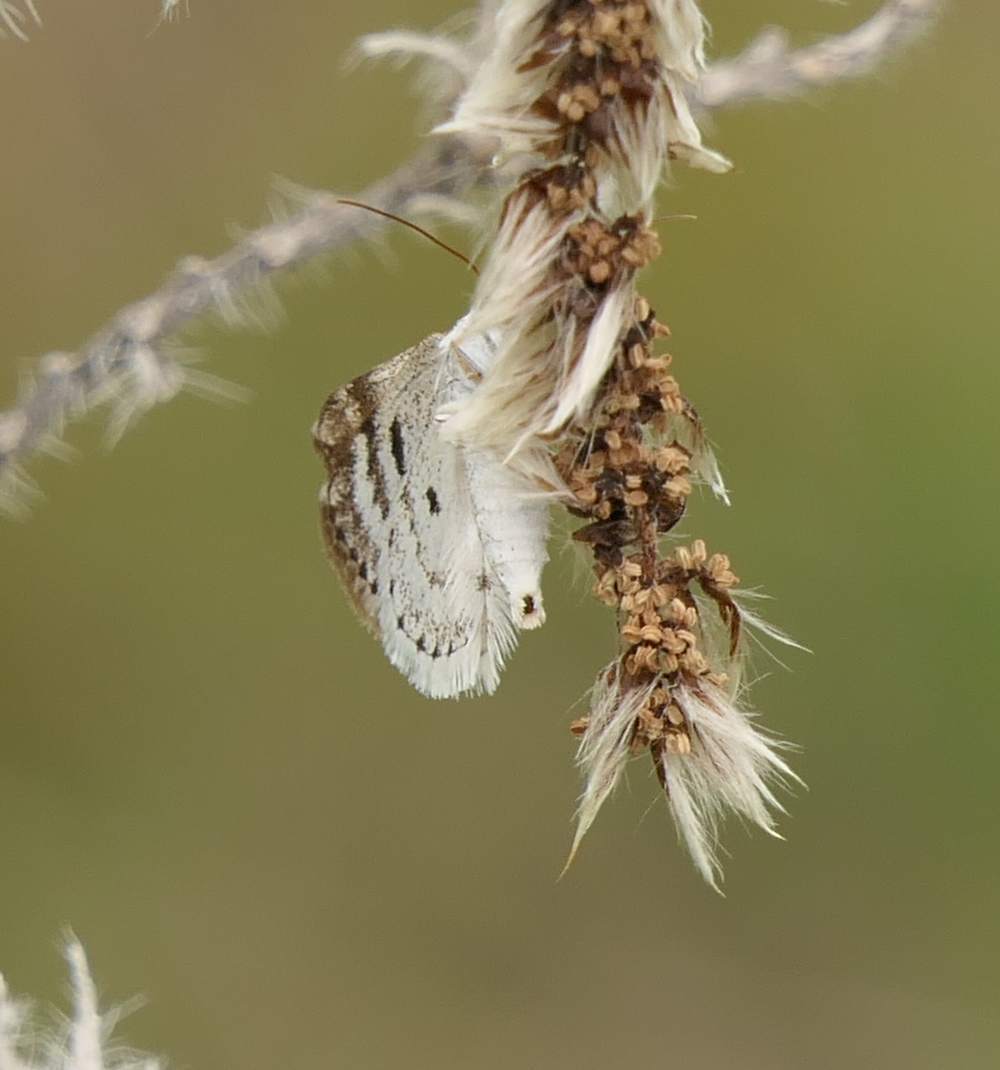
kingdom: Animalia
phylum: Arthropoda
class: Insecta
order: Lepidoptera
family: Geometridae
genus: Lomographa
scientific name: Lomographa semiclarata
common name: Bluish spring moth
